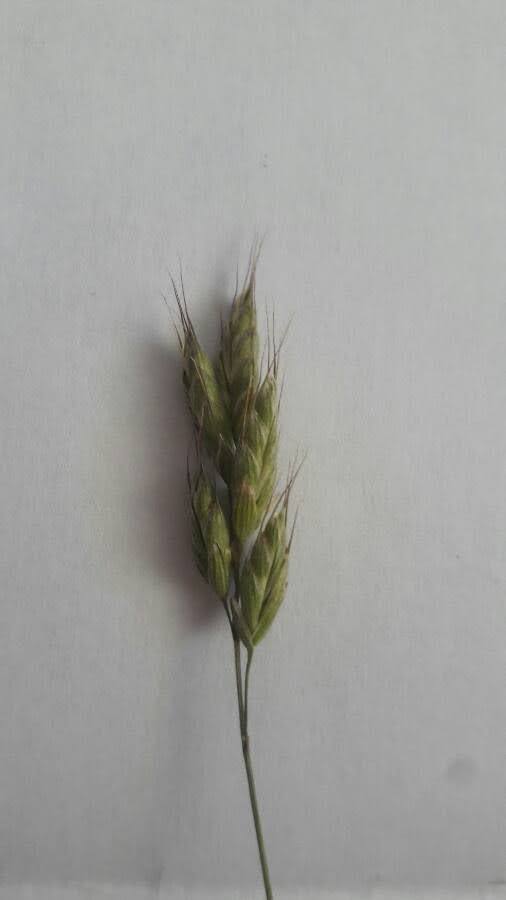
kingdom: Plantae
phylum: Tracheophyta
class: Liliopsida
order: Poales
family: Poaceae
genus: Bromus
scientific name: Bromus hordeaceus
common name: Soft brome
